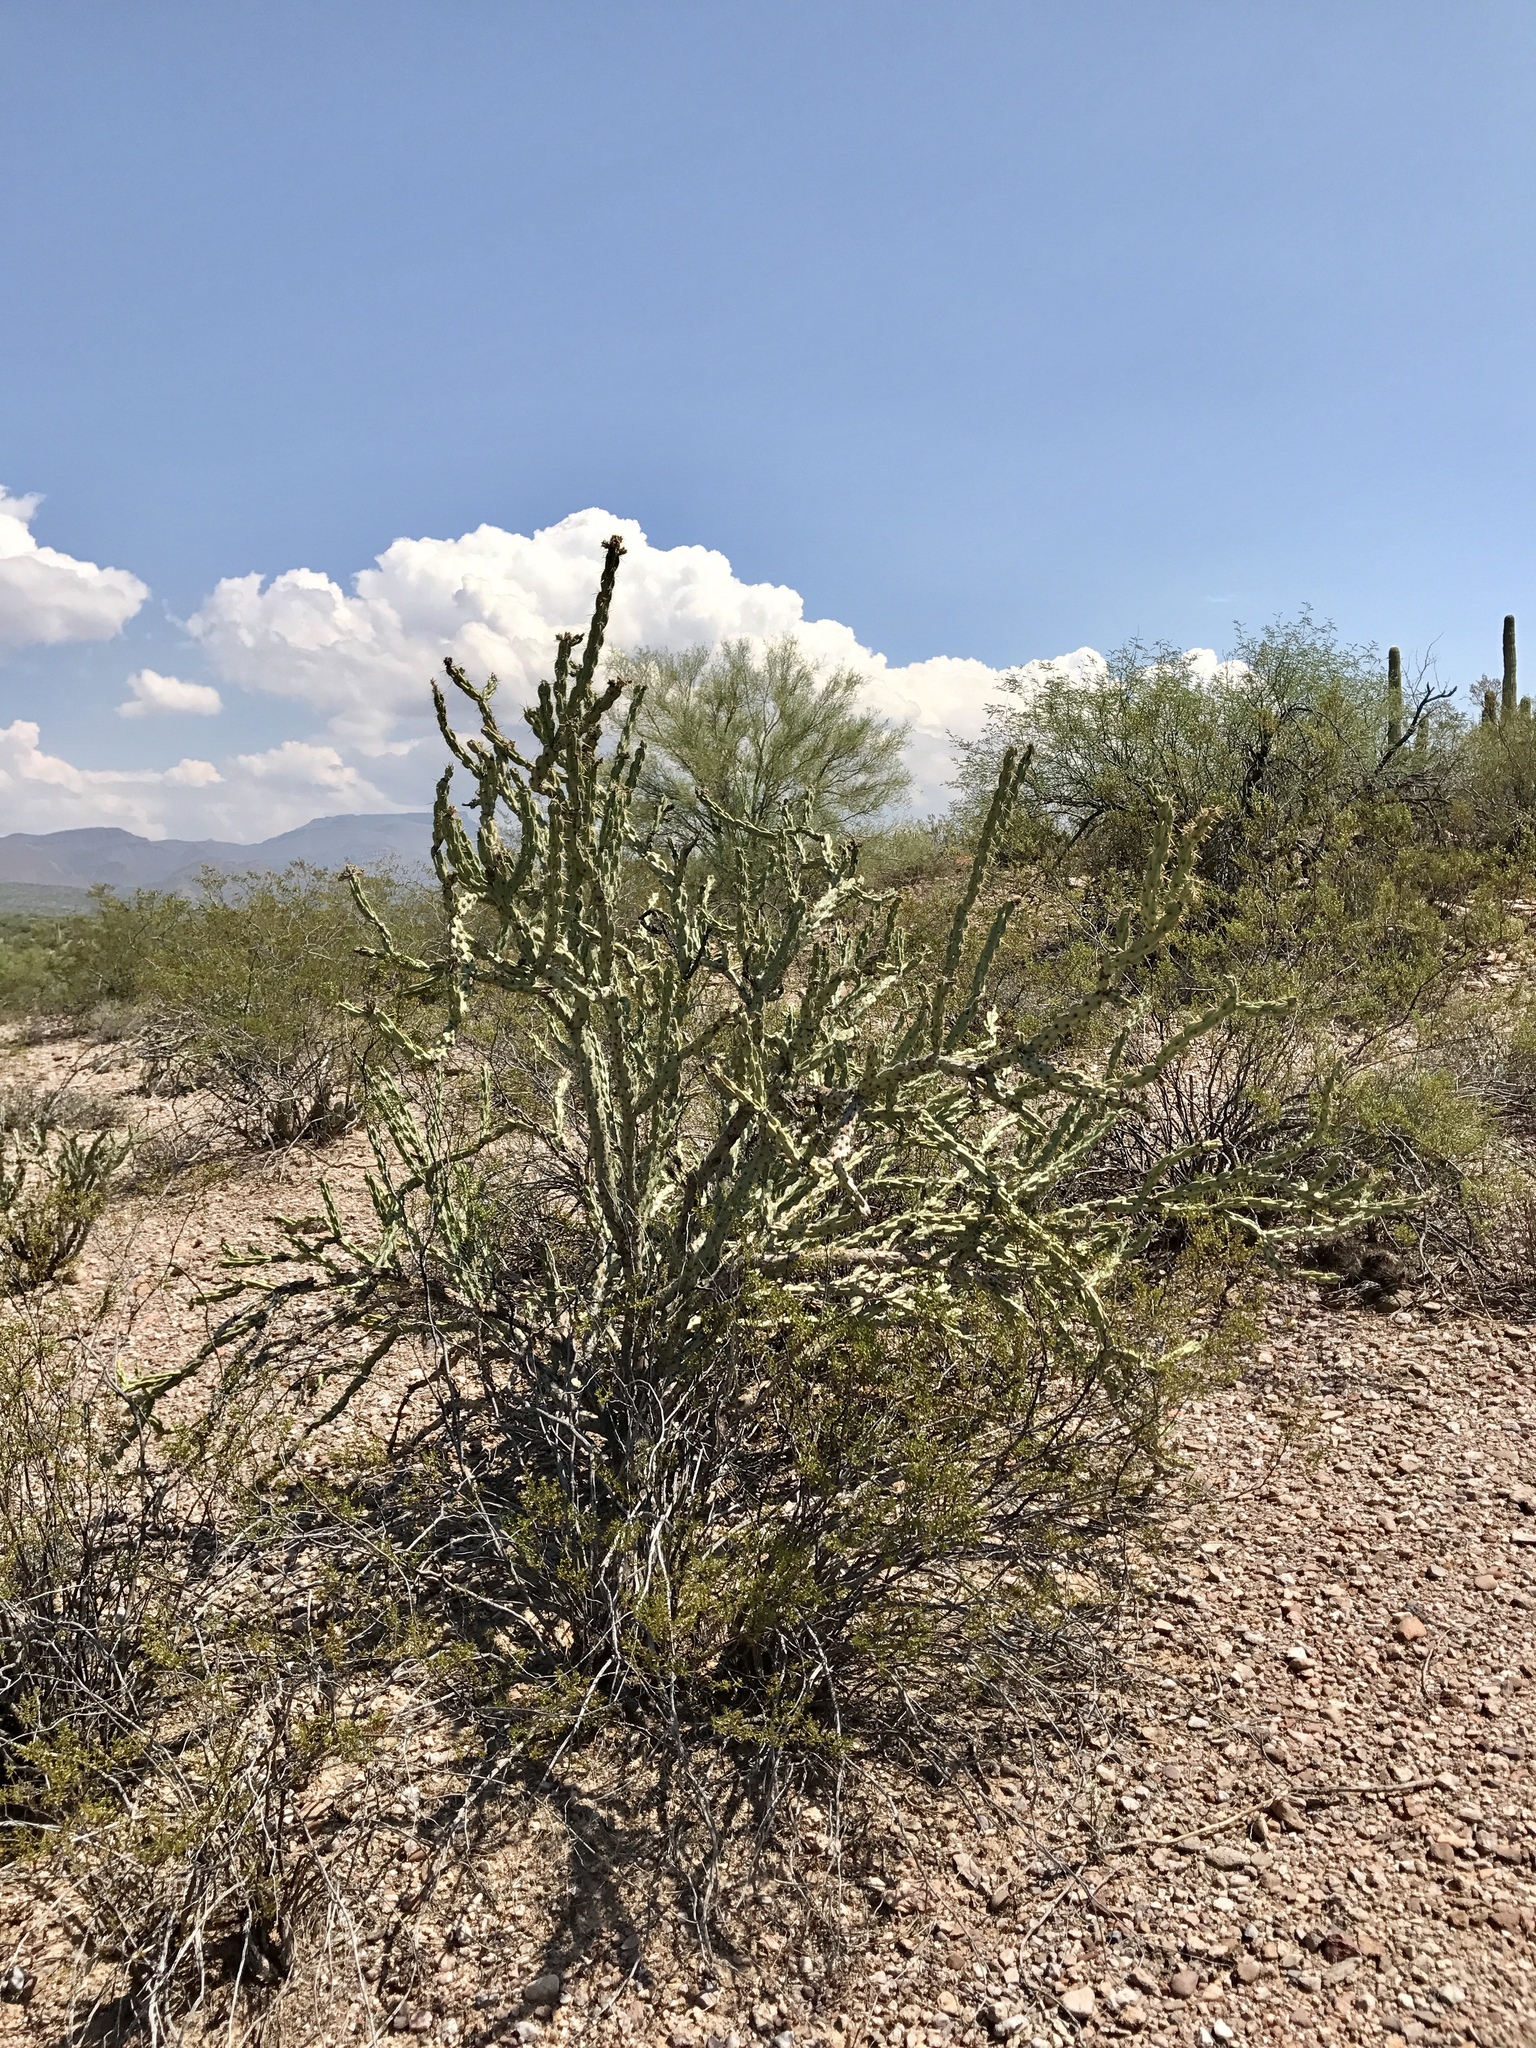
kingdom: Plantae
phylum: Tracheophyta
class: Magnoliopsida
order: Caryophyllales
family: Cactaceae
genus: Cylindropuntia
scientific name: Cylindropuntia acanthocarpa
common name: Buckhorn cholla
